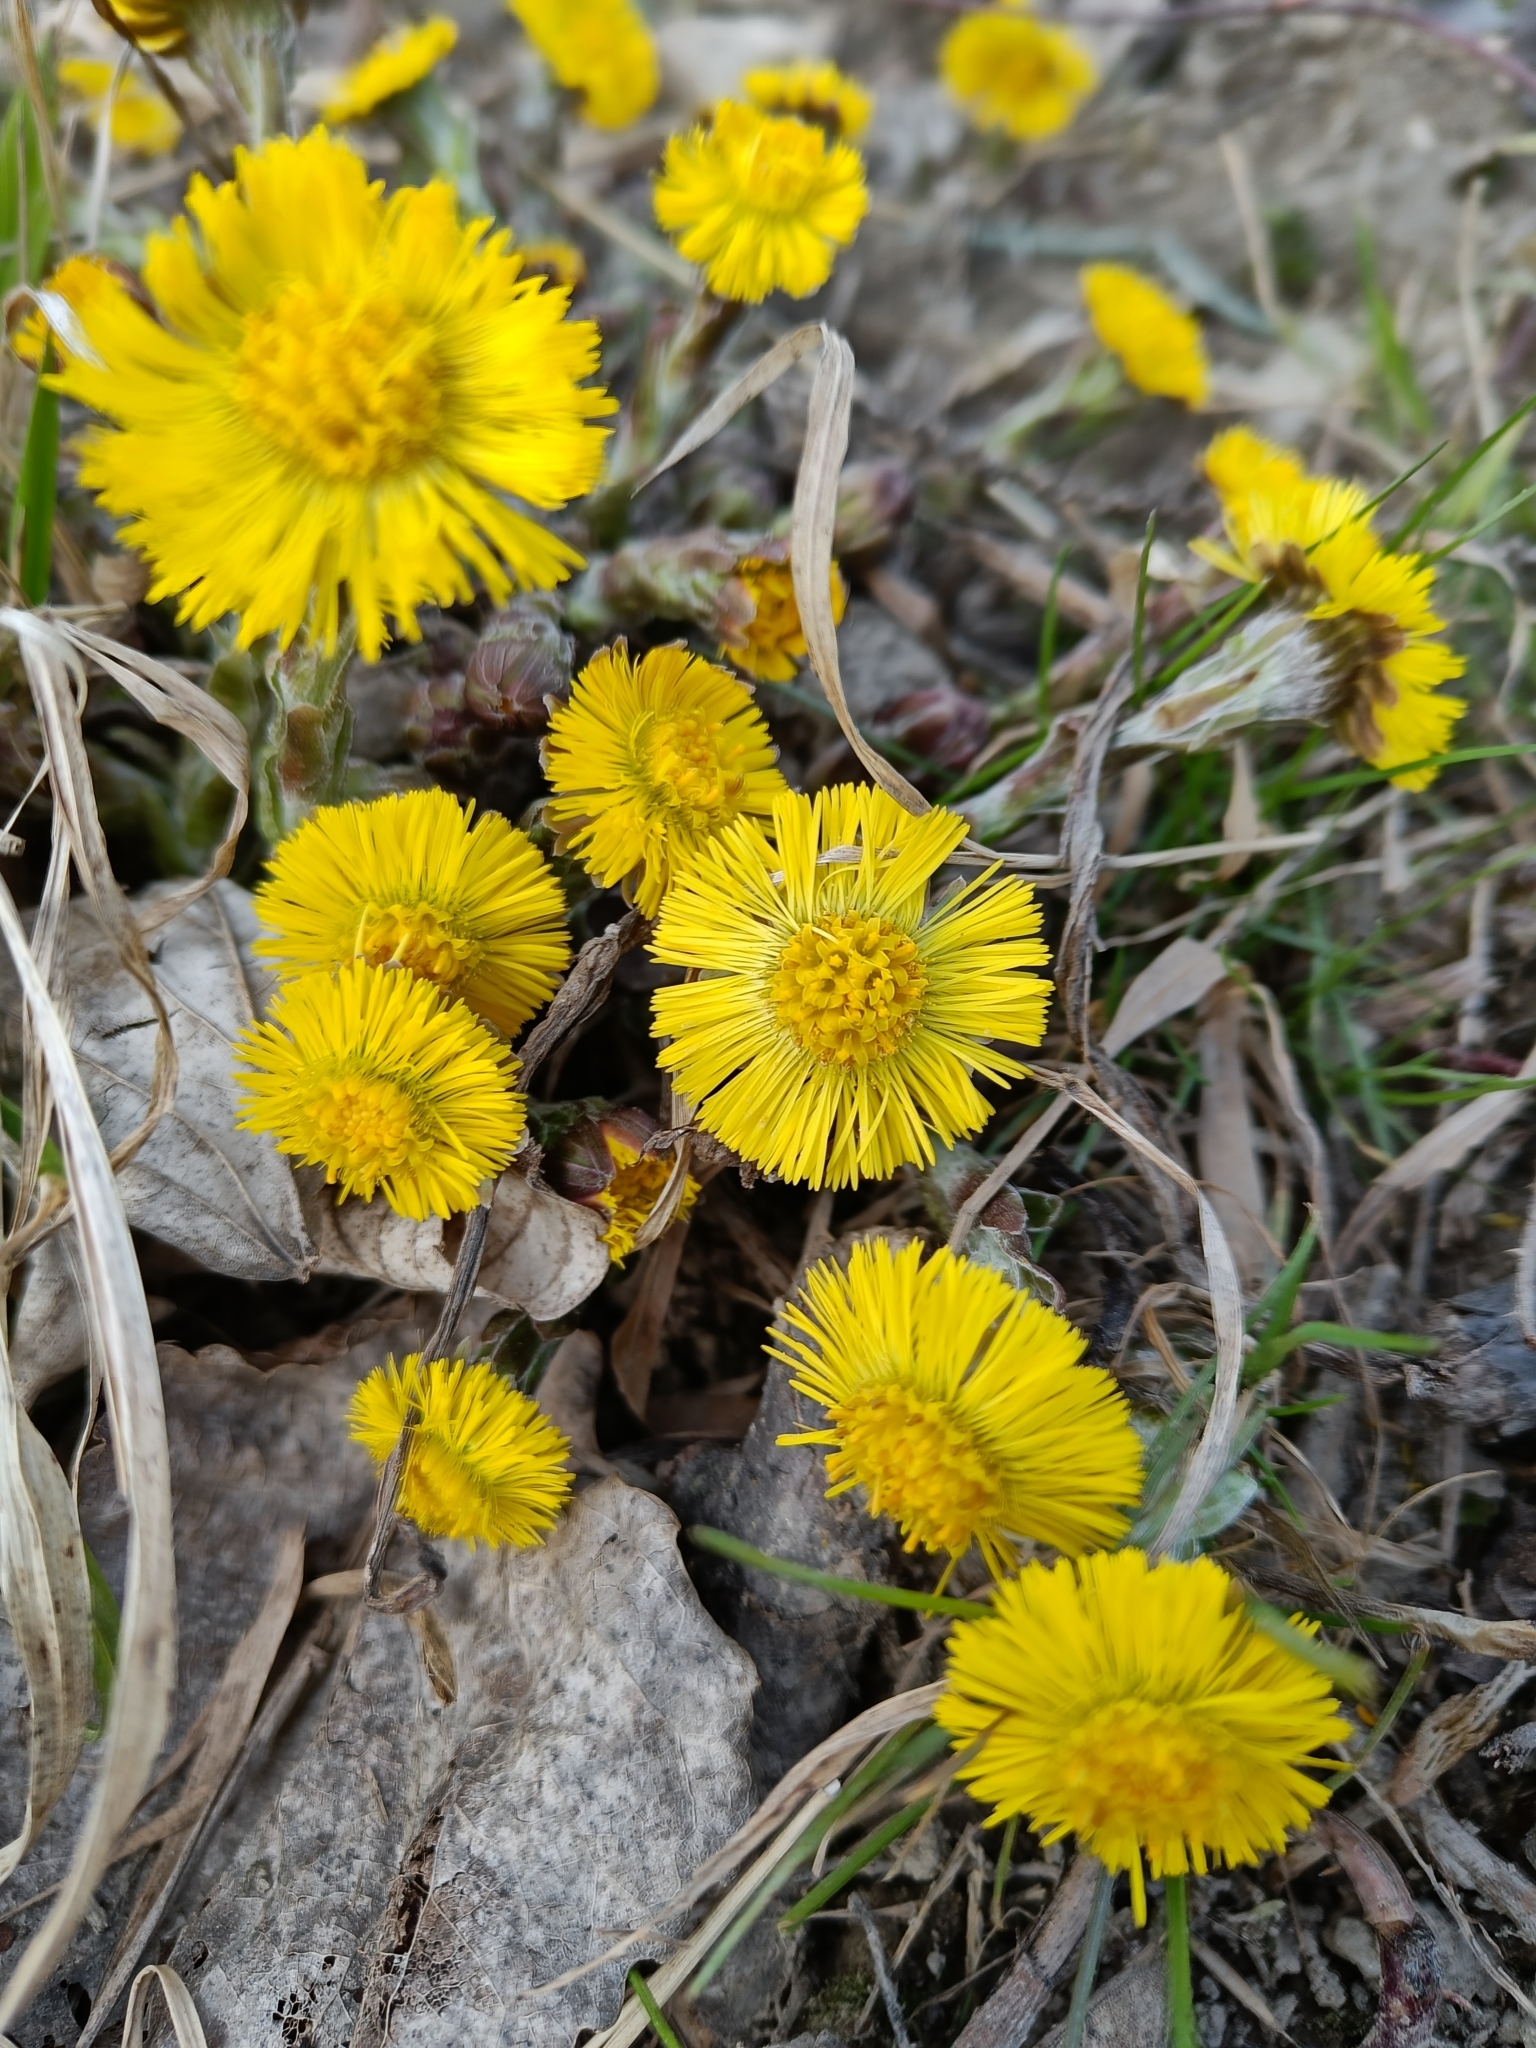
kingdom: Plantae
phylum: Tracheophyta
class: Magnoliopsida
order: Asterales
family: Asteraceae
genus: Tussilago
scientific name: Tussilago farfara
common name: Coltsfoot
